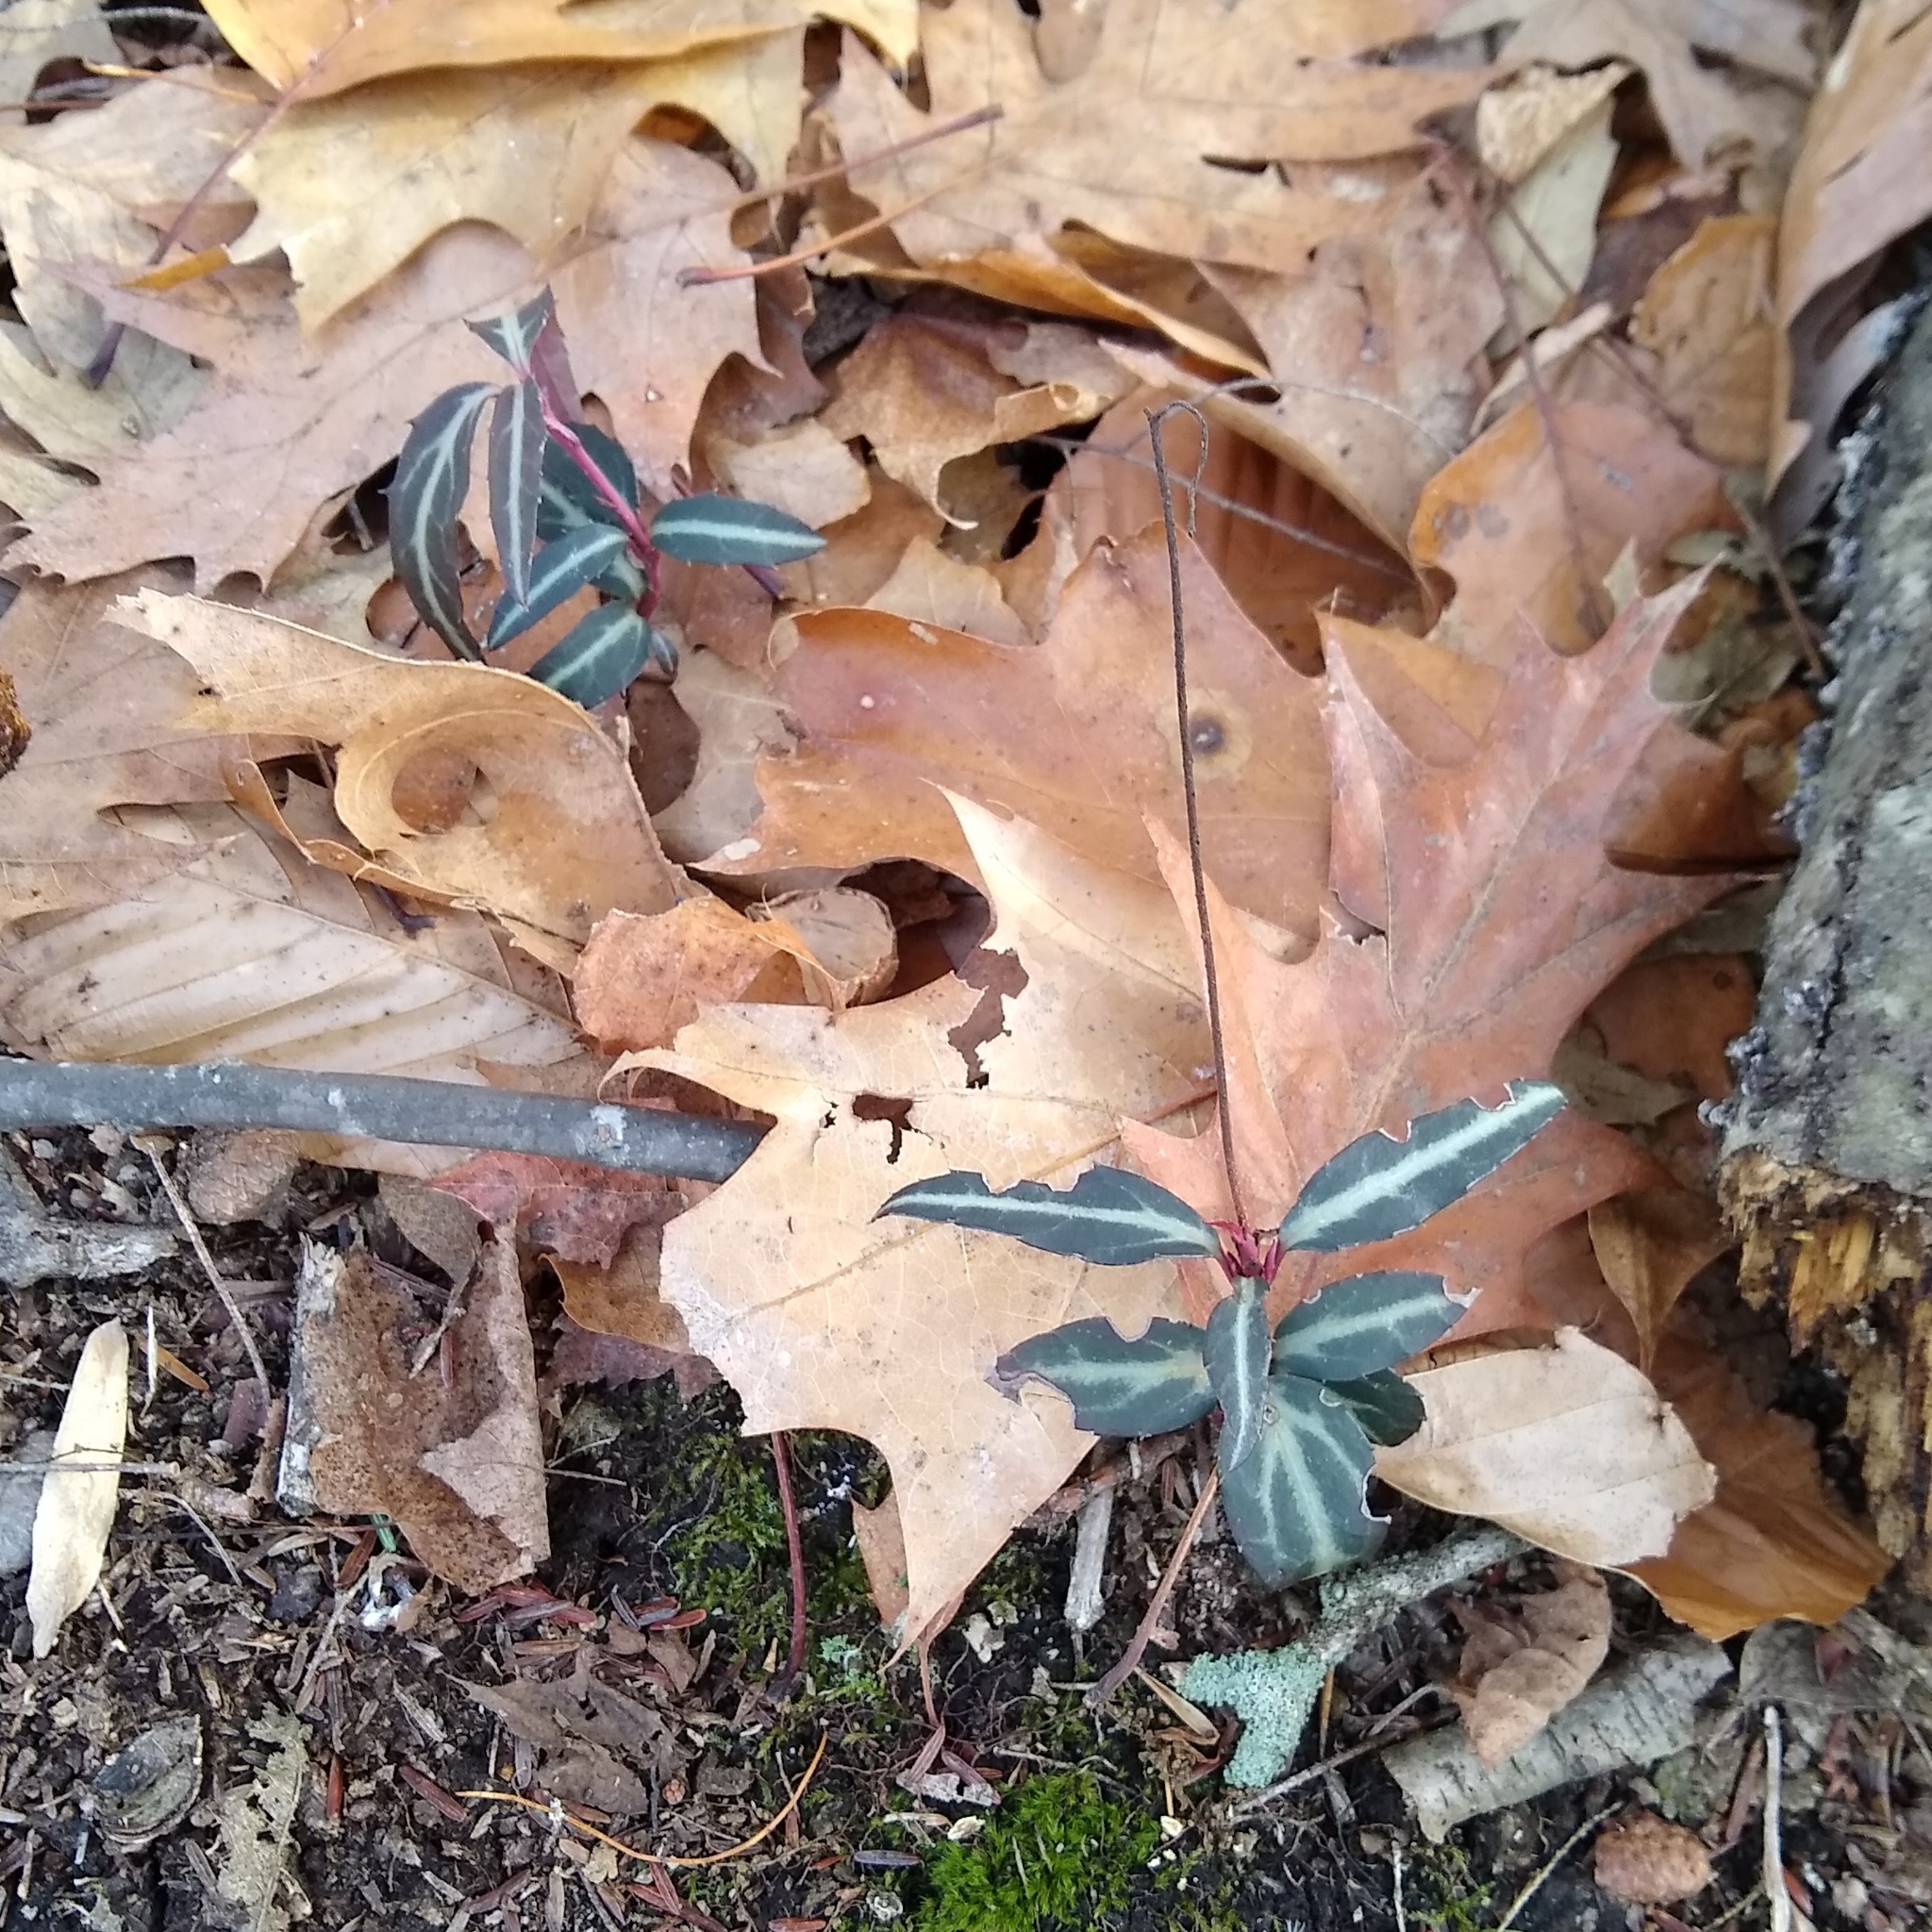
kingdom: Plantae
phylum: Tracheophyta
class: Magnoliopsida
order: Ericales
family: Ericaceae
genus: Chimaphila
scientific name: Chimaphila maculata
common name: Spotted pipsissewa
